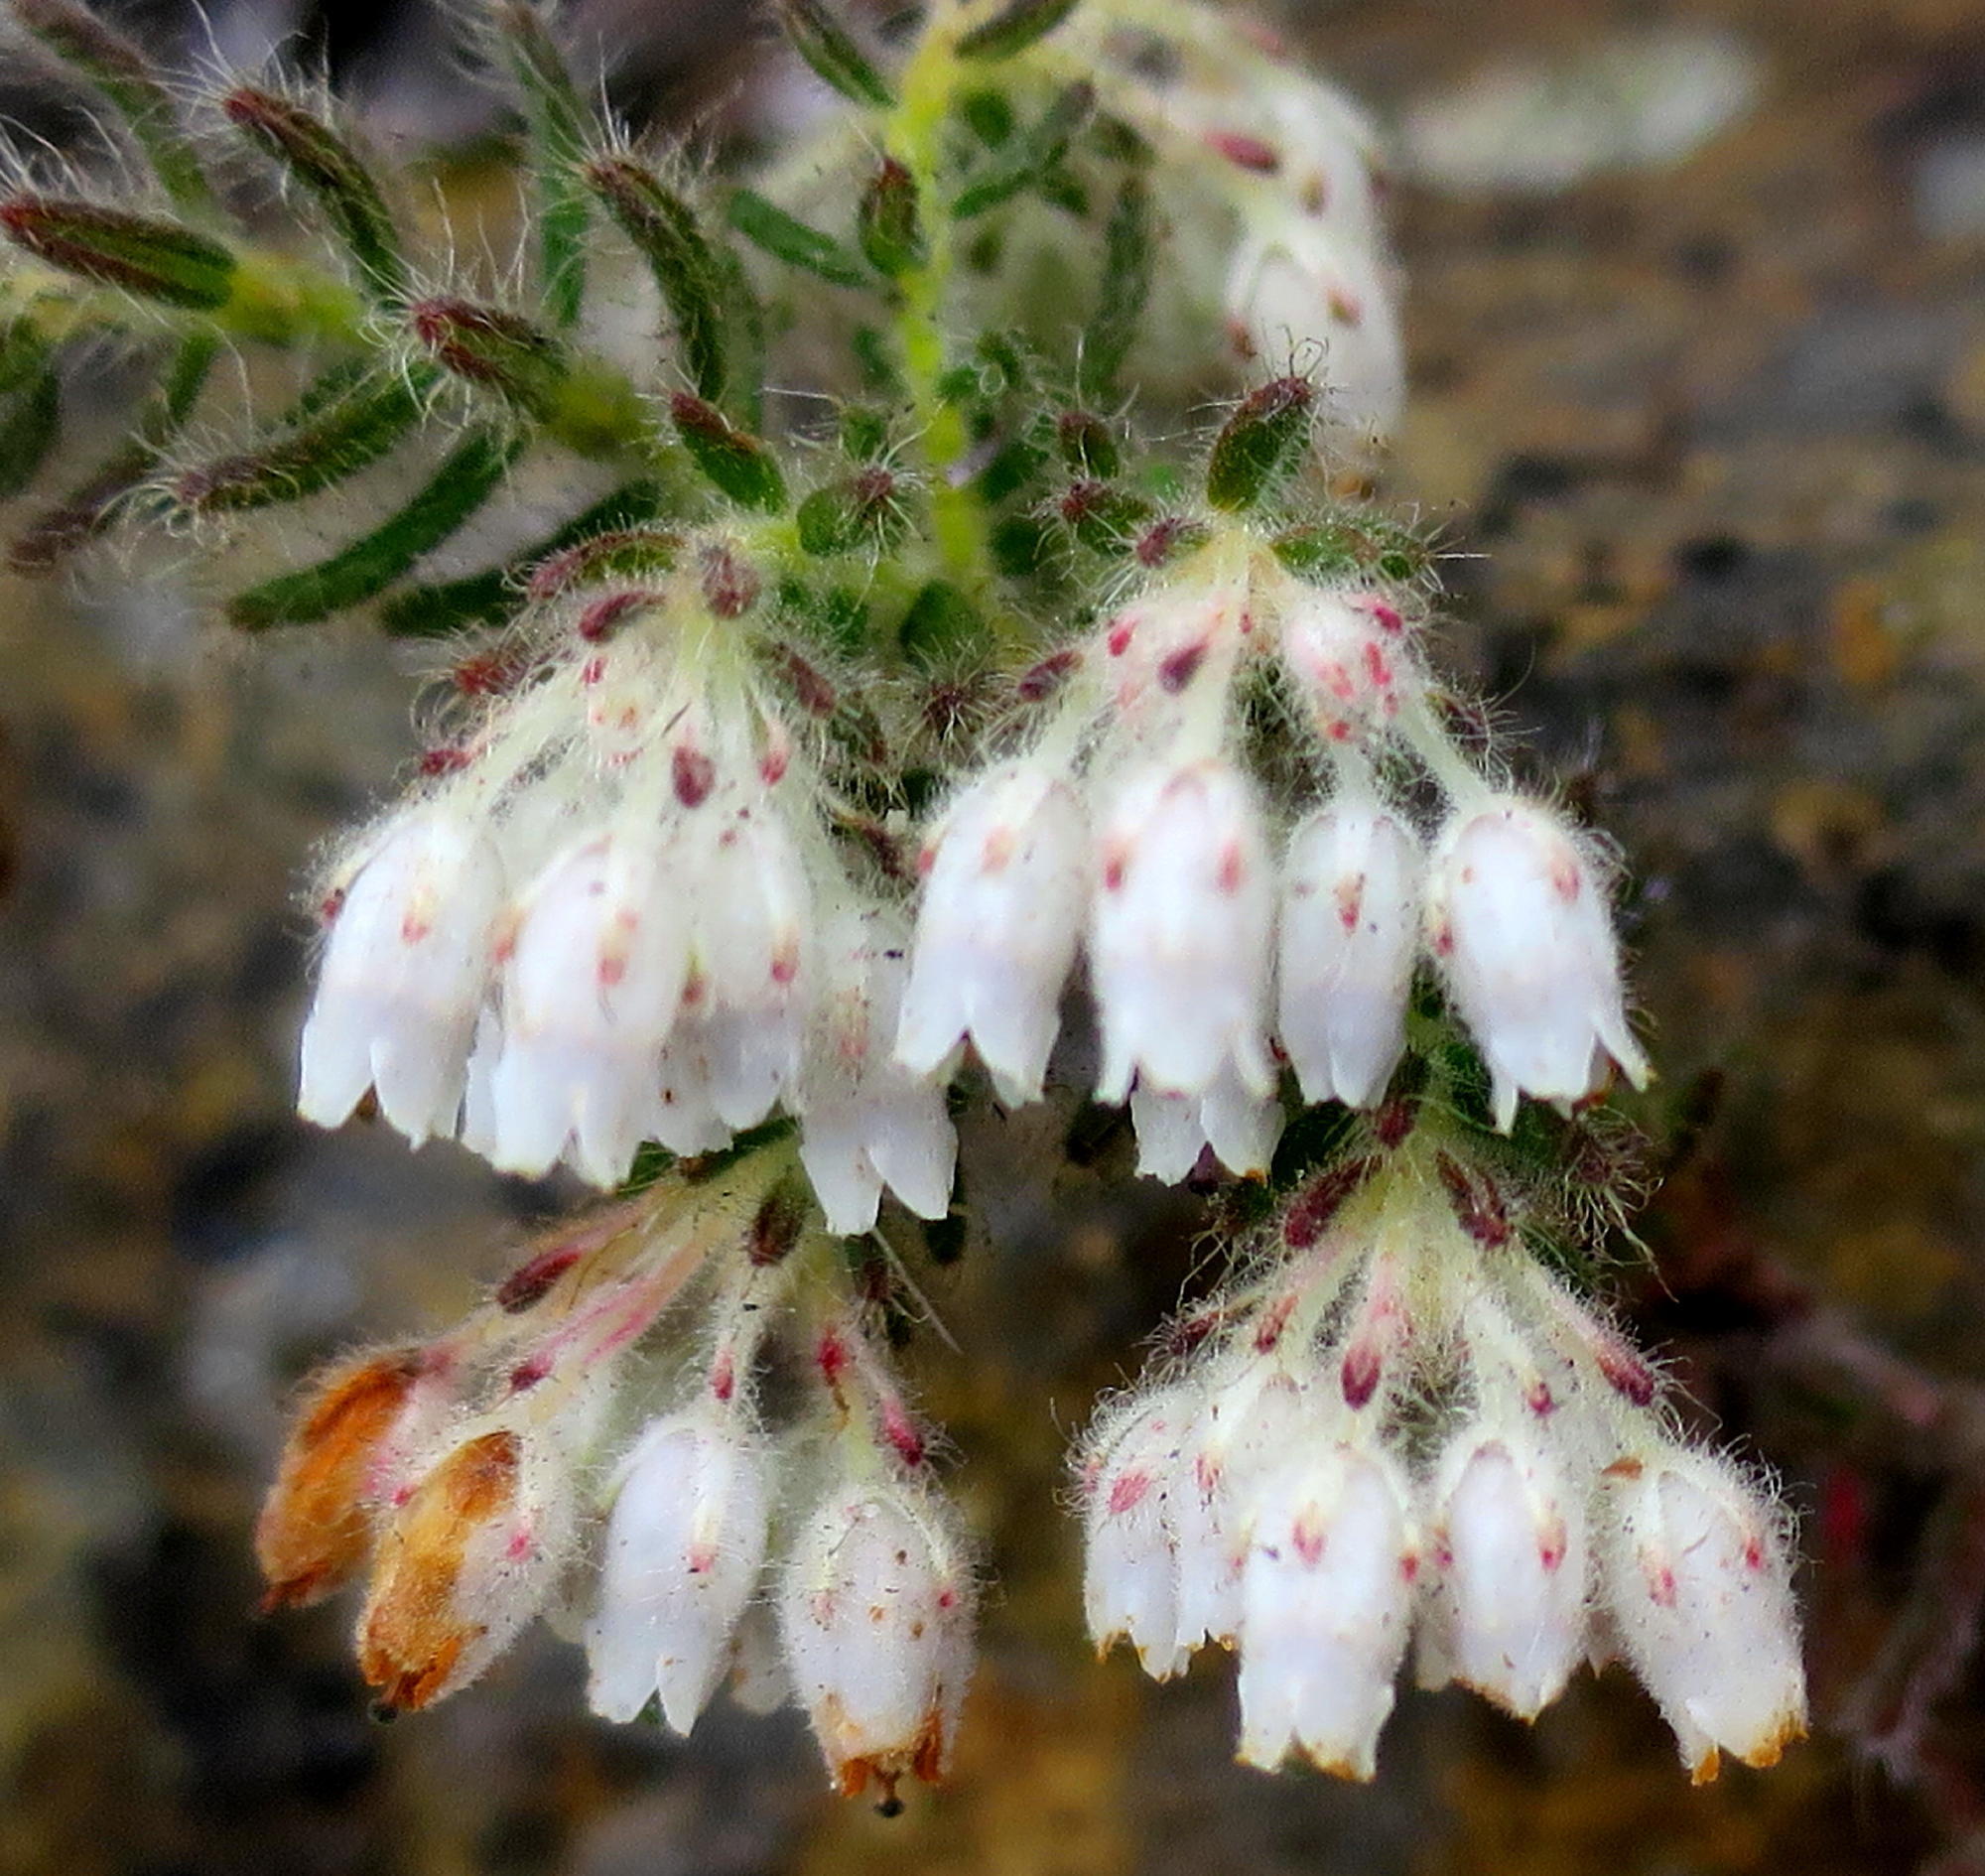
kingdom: Plantae
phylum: Tracheophyta
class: Magnoliopsida
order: Ericales
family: Ericaceae
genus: Erica
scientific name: Erica pannosa
